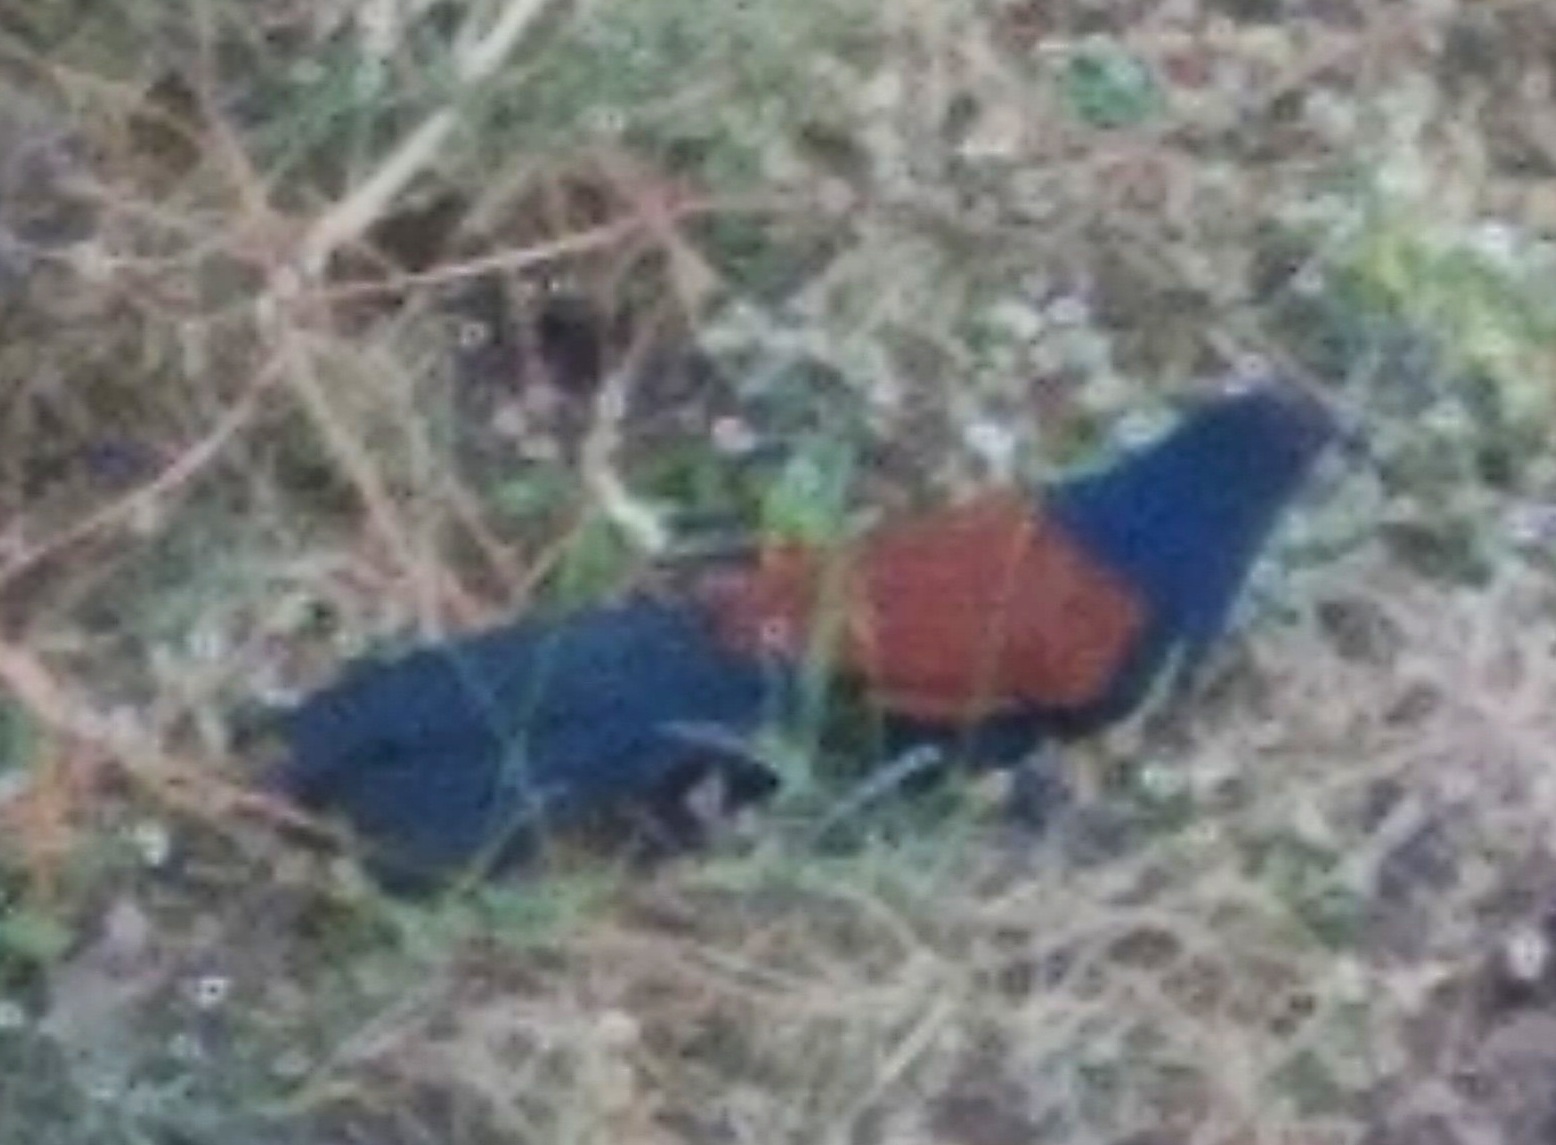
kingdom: Animalia
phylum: Chordata
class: Aves
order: Cuculiformes
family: Cuculidae
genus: Centropus
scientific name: Centropus sinensis
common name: Greater coucal
